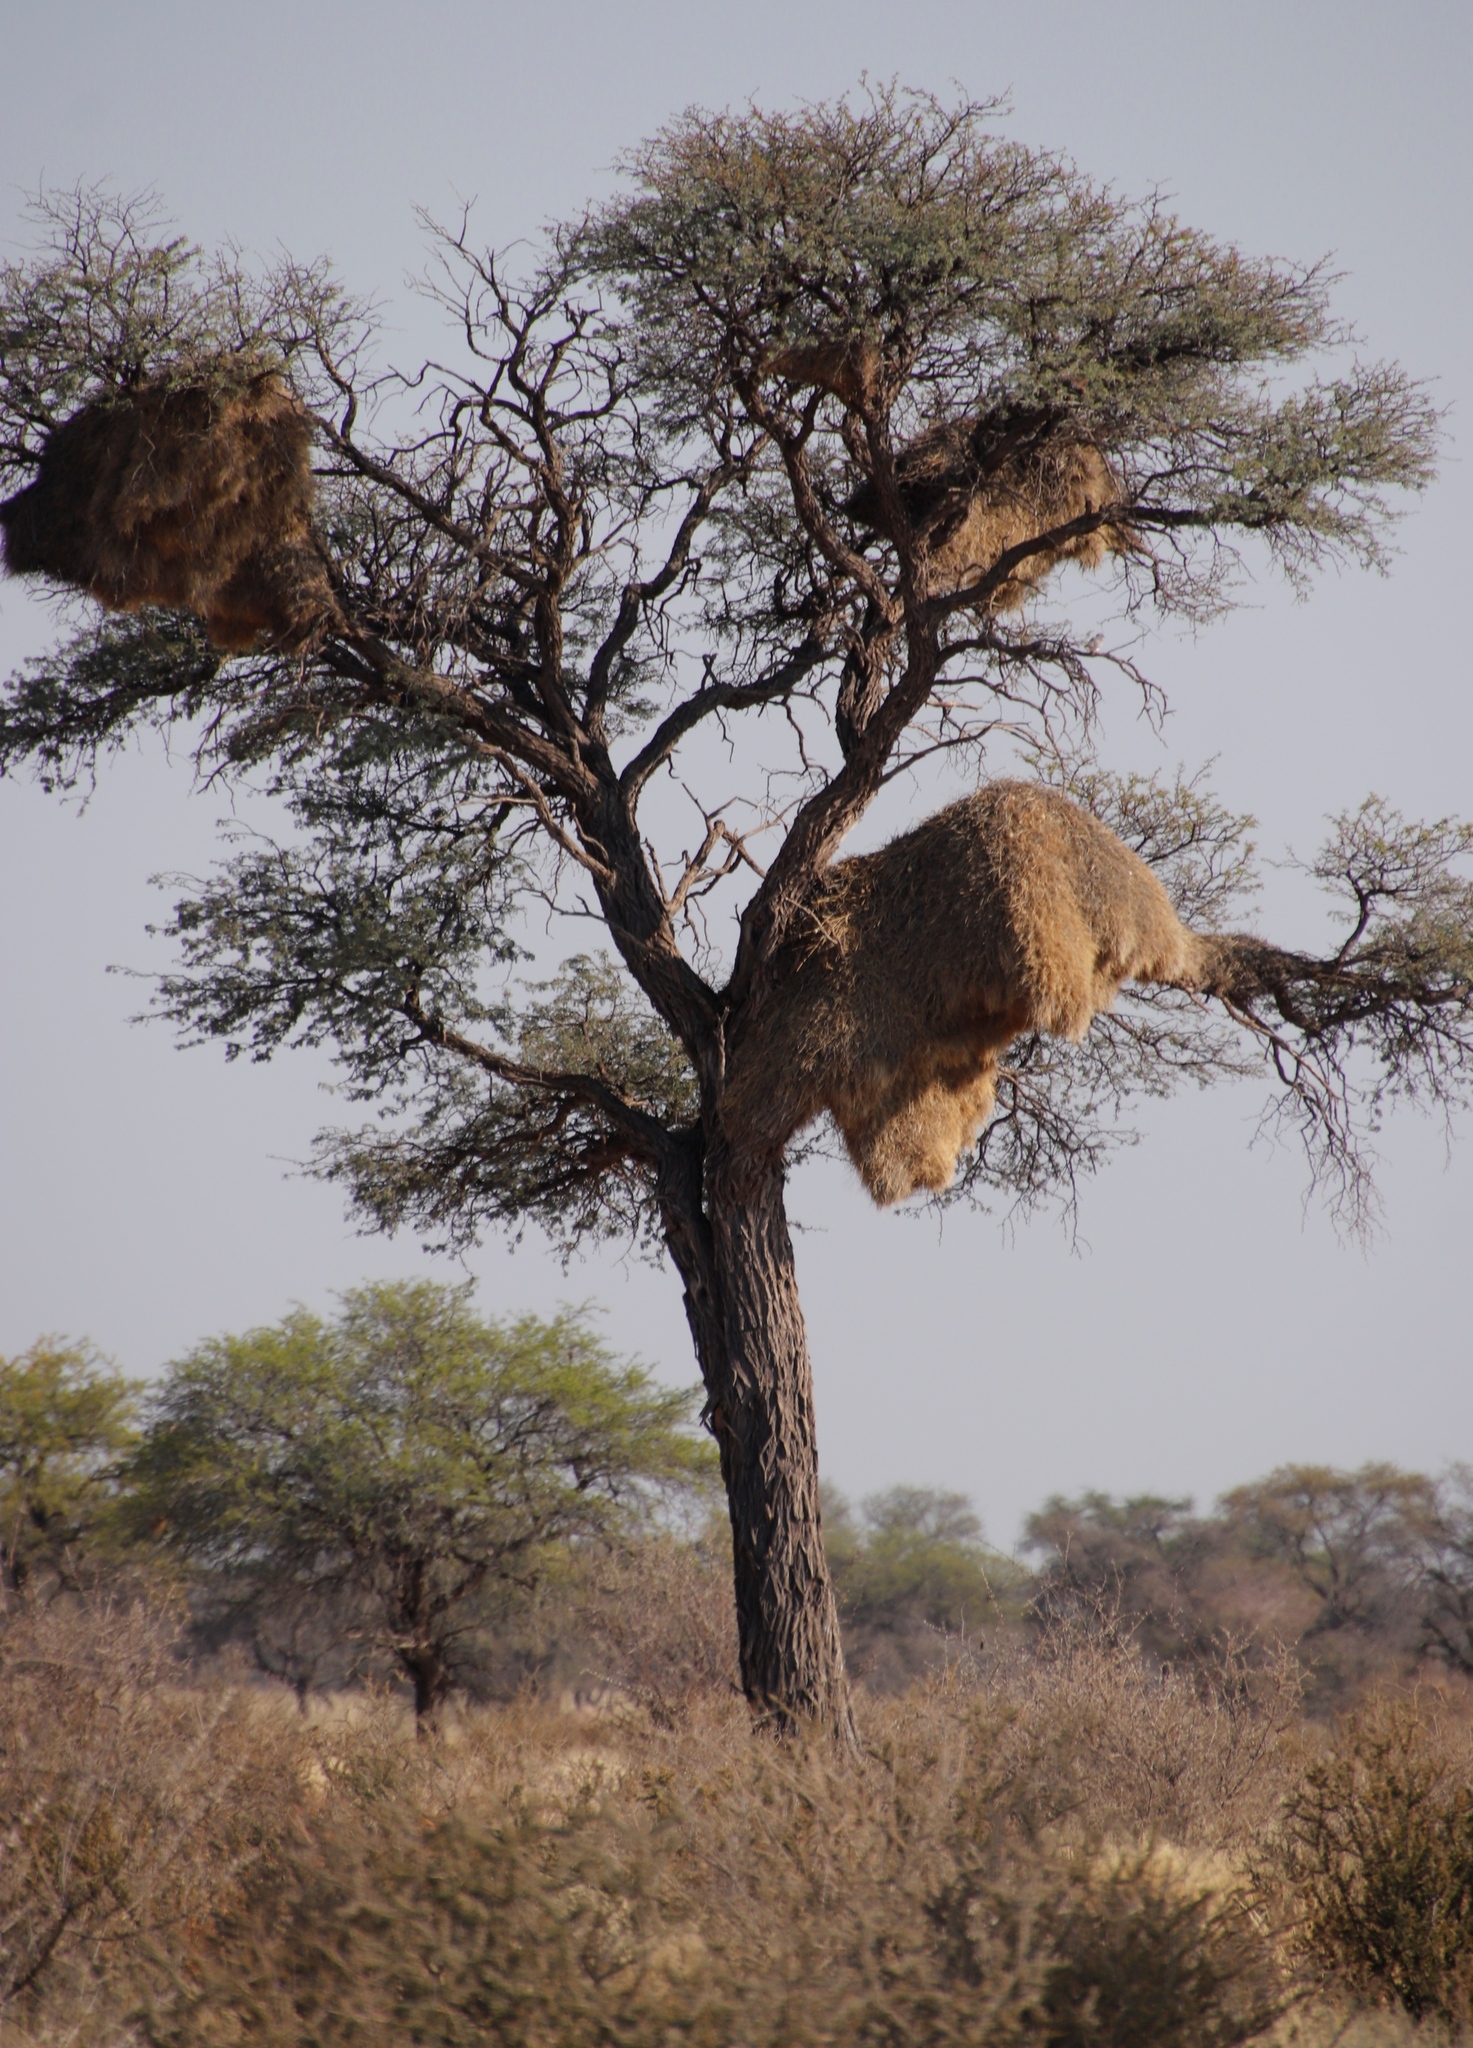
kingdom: Animalia
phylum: Chordata
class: Aves
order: Passeriformes
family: Passeridae
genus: Philetairus
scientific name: Philetairus socius
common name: Sociable weaver
